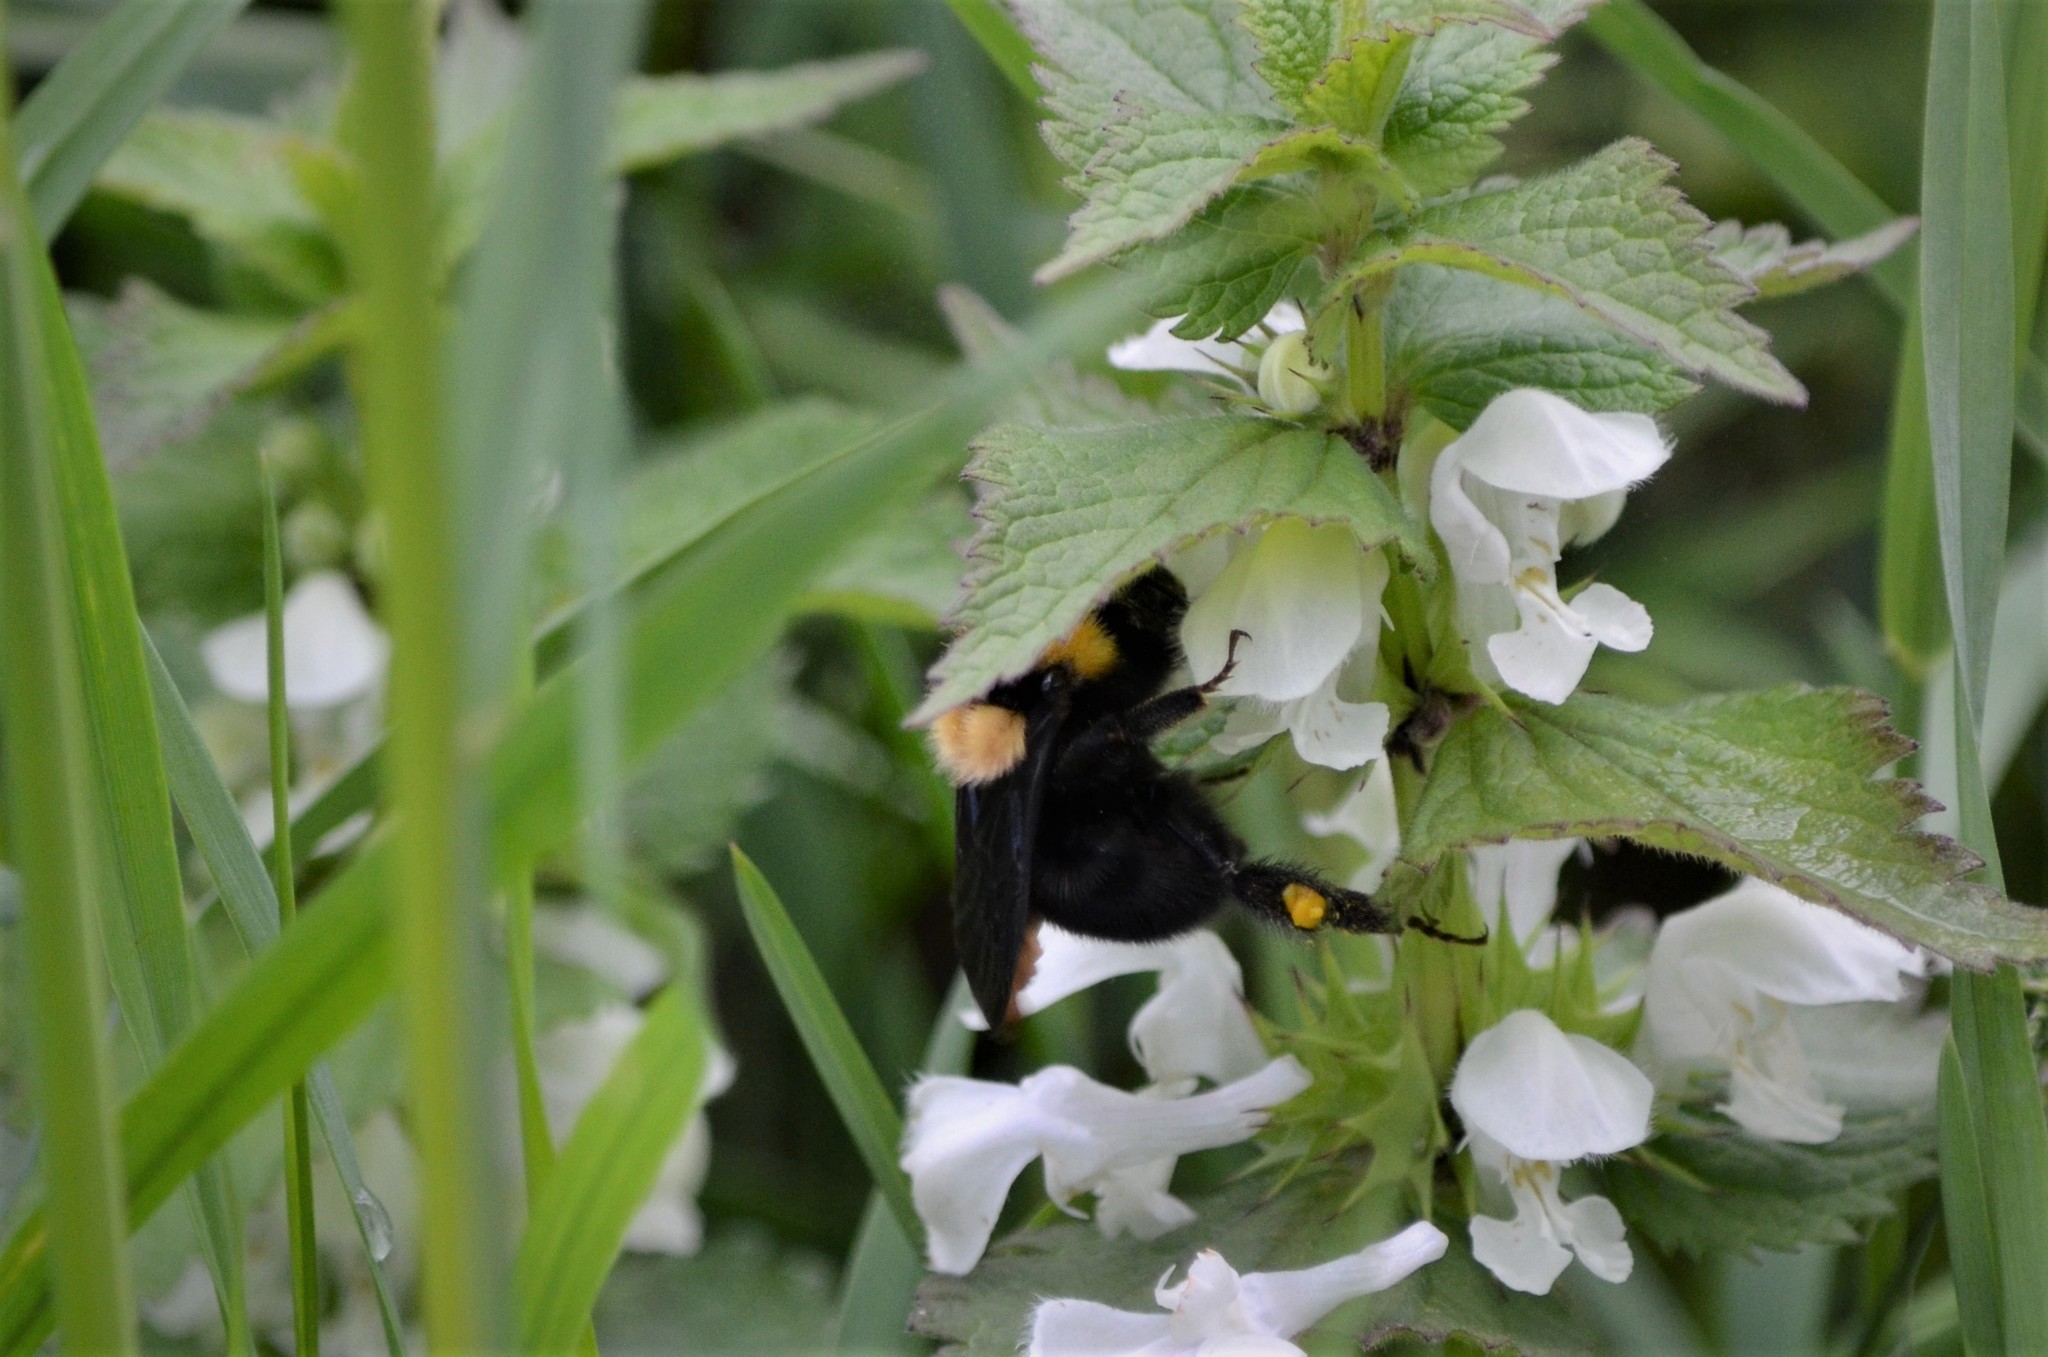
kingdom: Animalia
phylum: Arthropoda
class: Insecta
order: Hymenoptera
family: Apidae
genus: Bombus
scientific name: Bombus argillaceus
